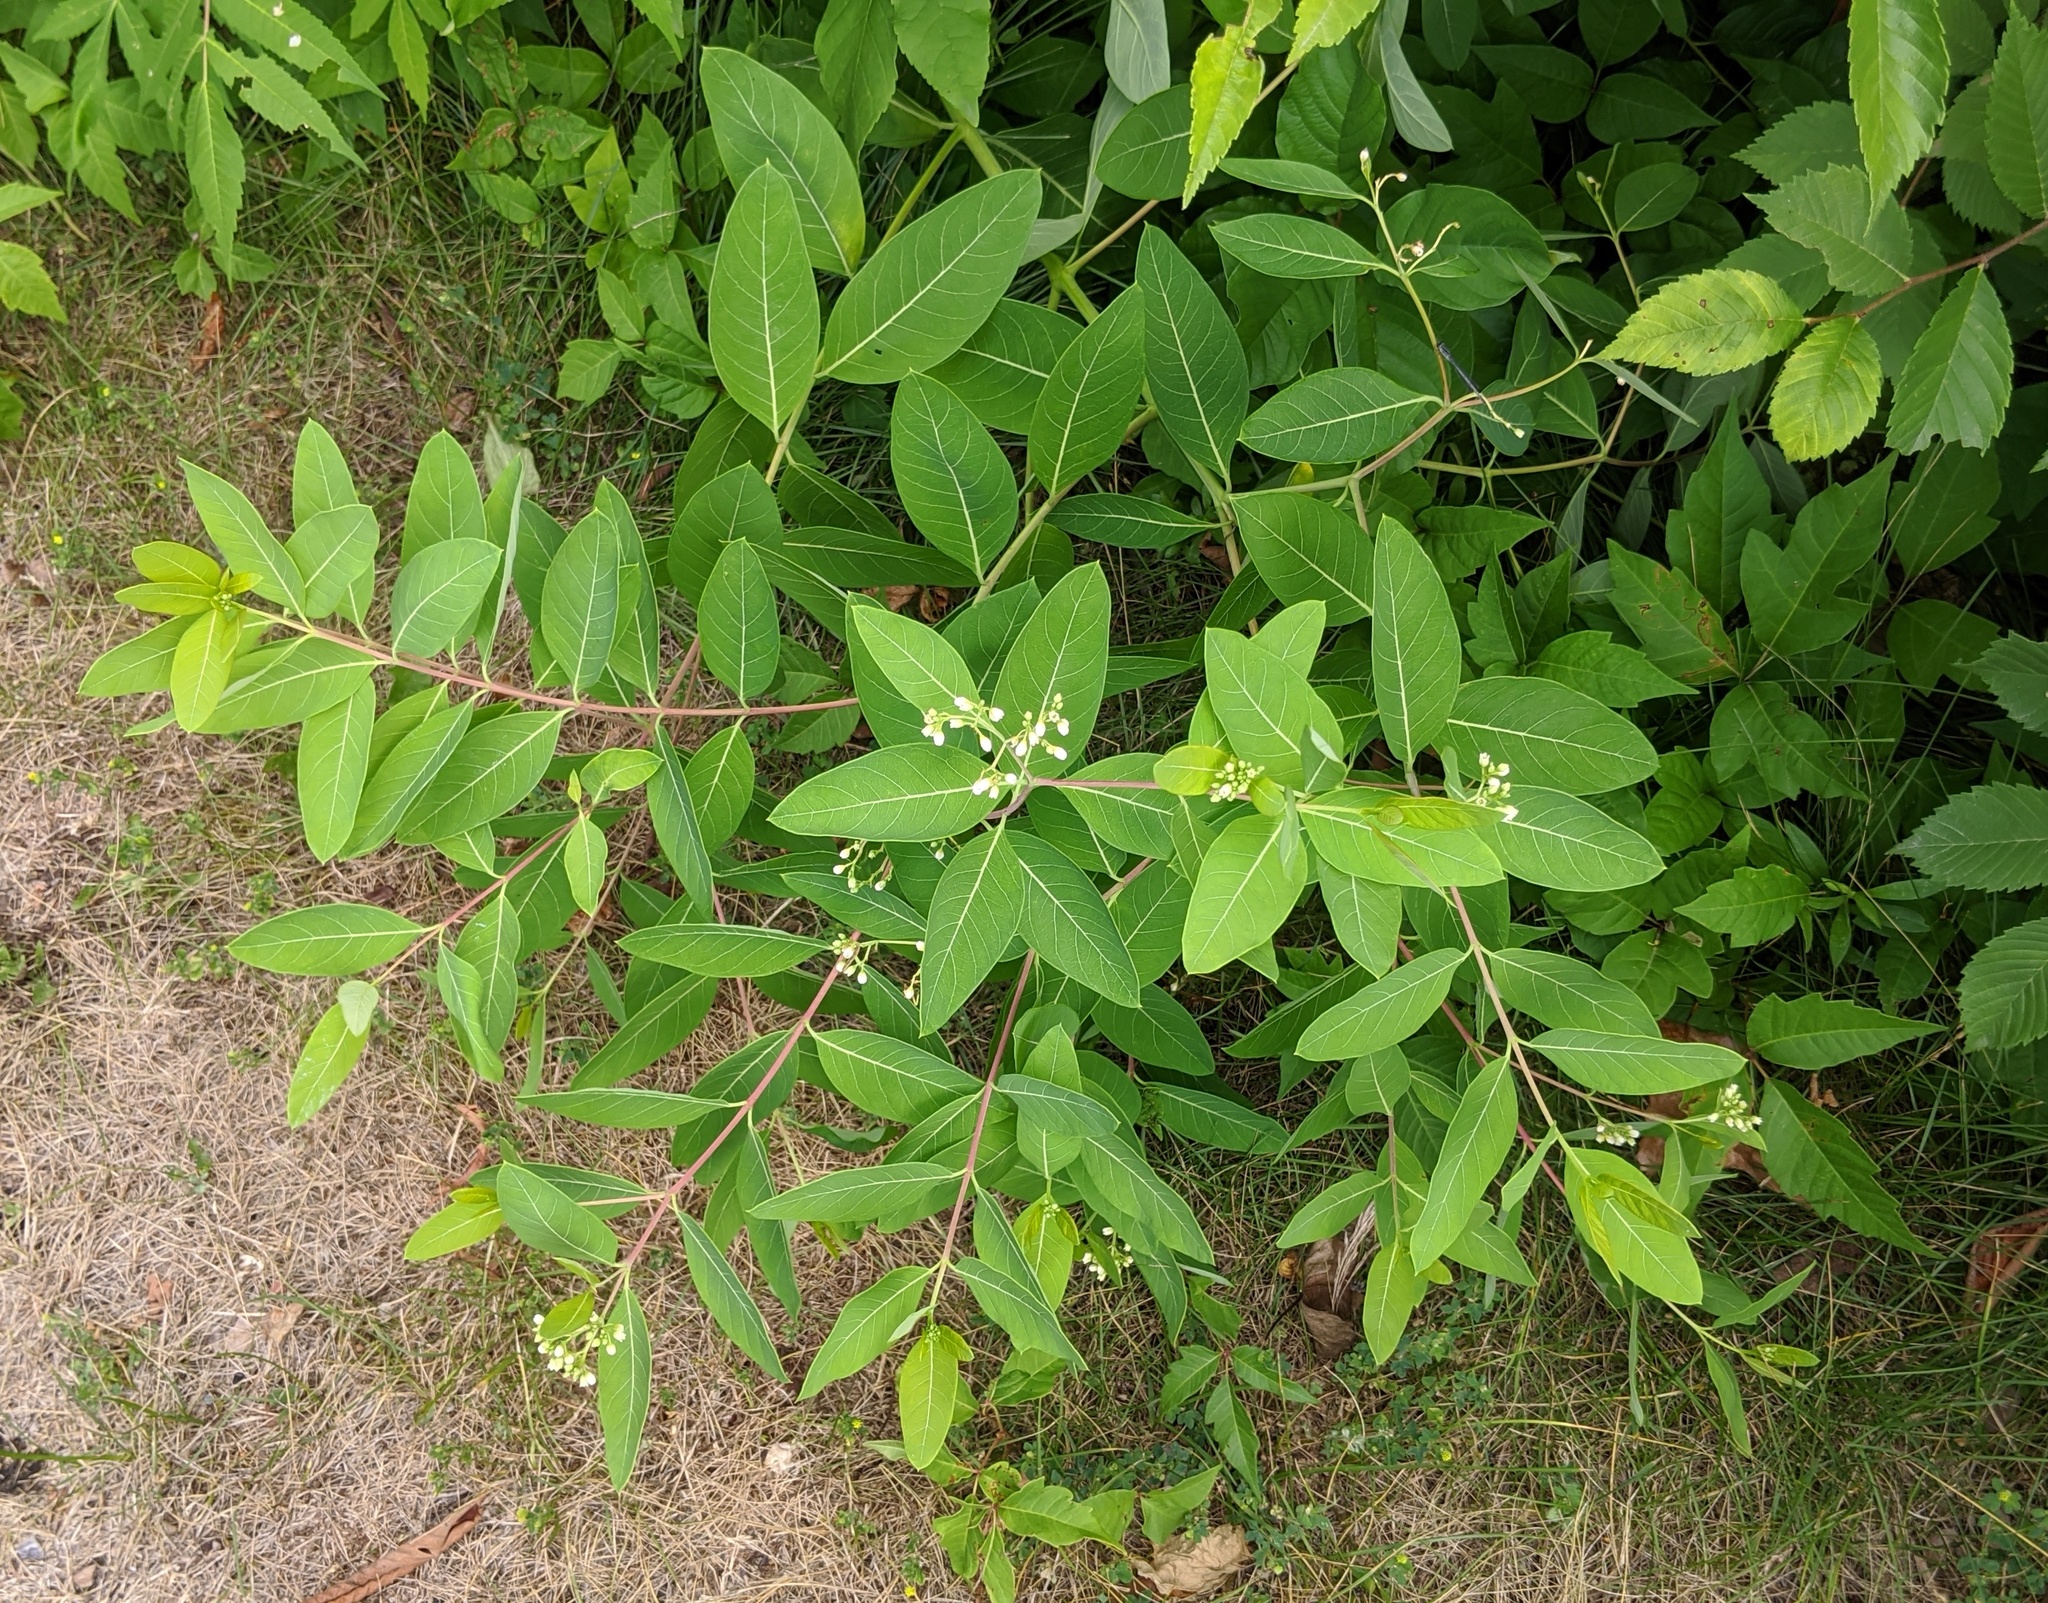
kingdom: Plantae
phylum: Tracheophyta
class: Magnoliopsida
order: Gentianales
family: Apocynaceae
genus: Apocynum
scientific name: Apocynum cannabinum
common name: Hemp dogbane
